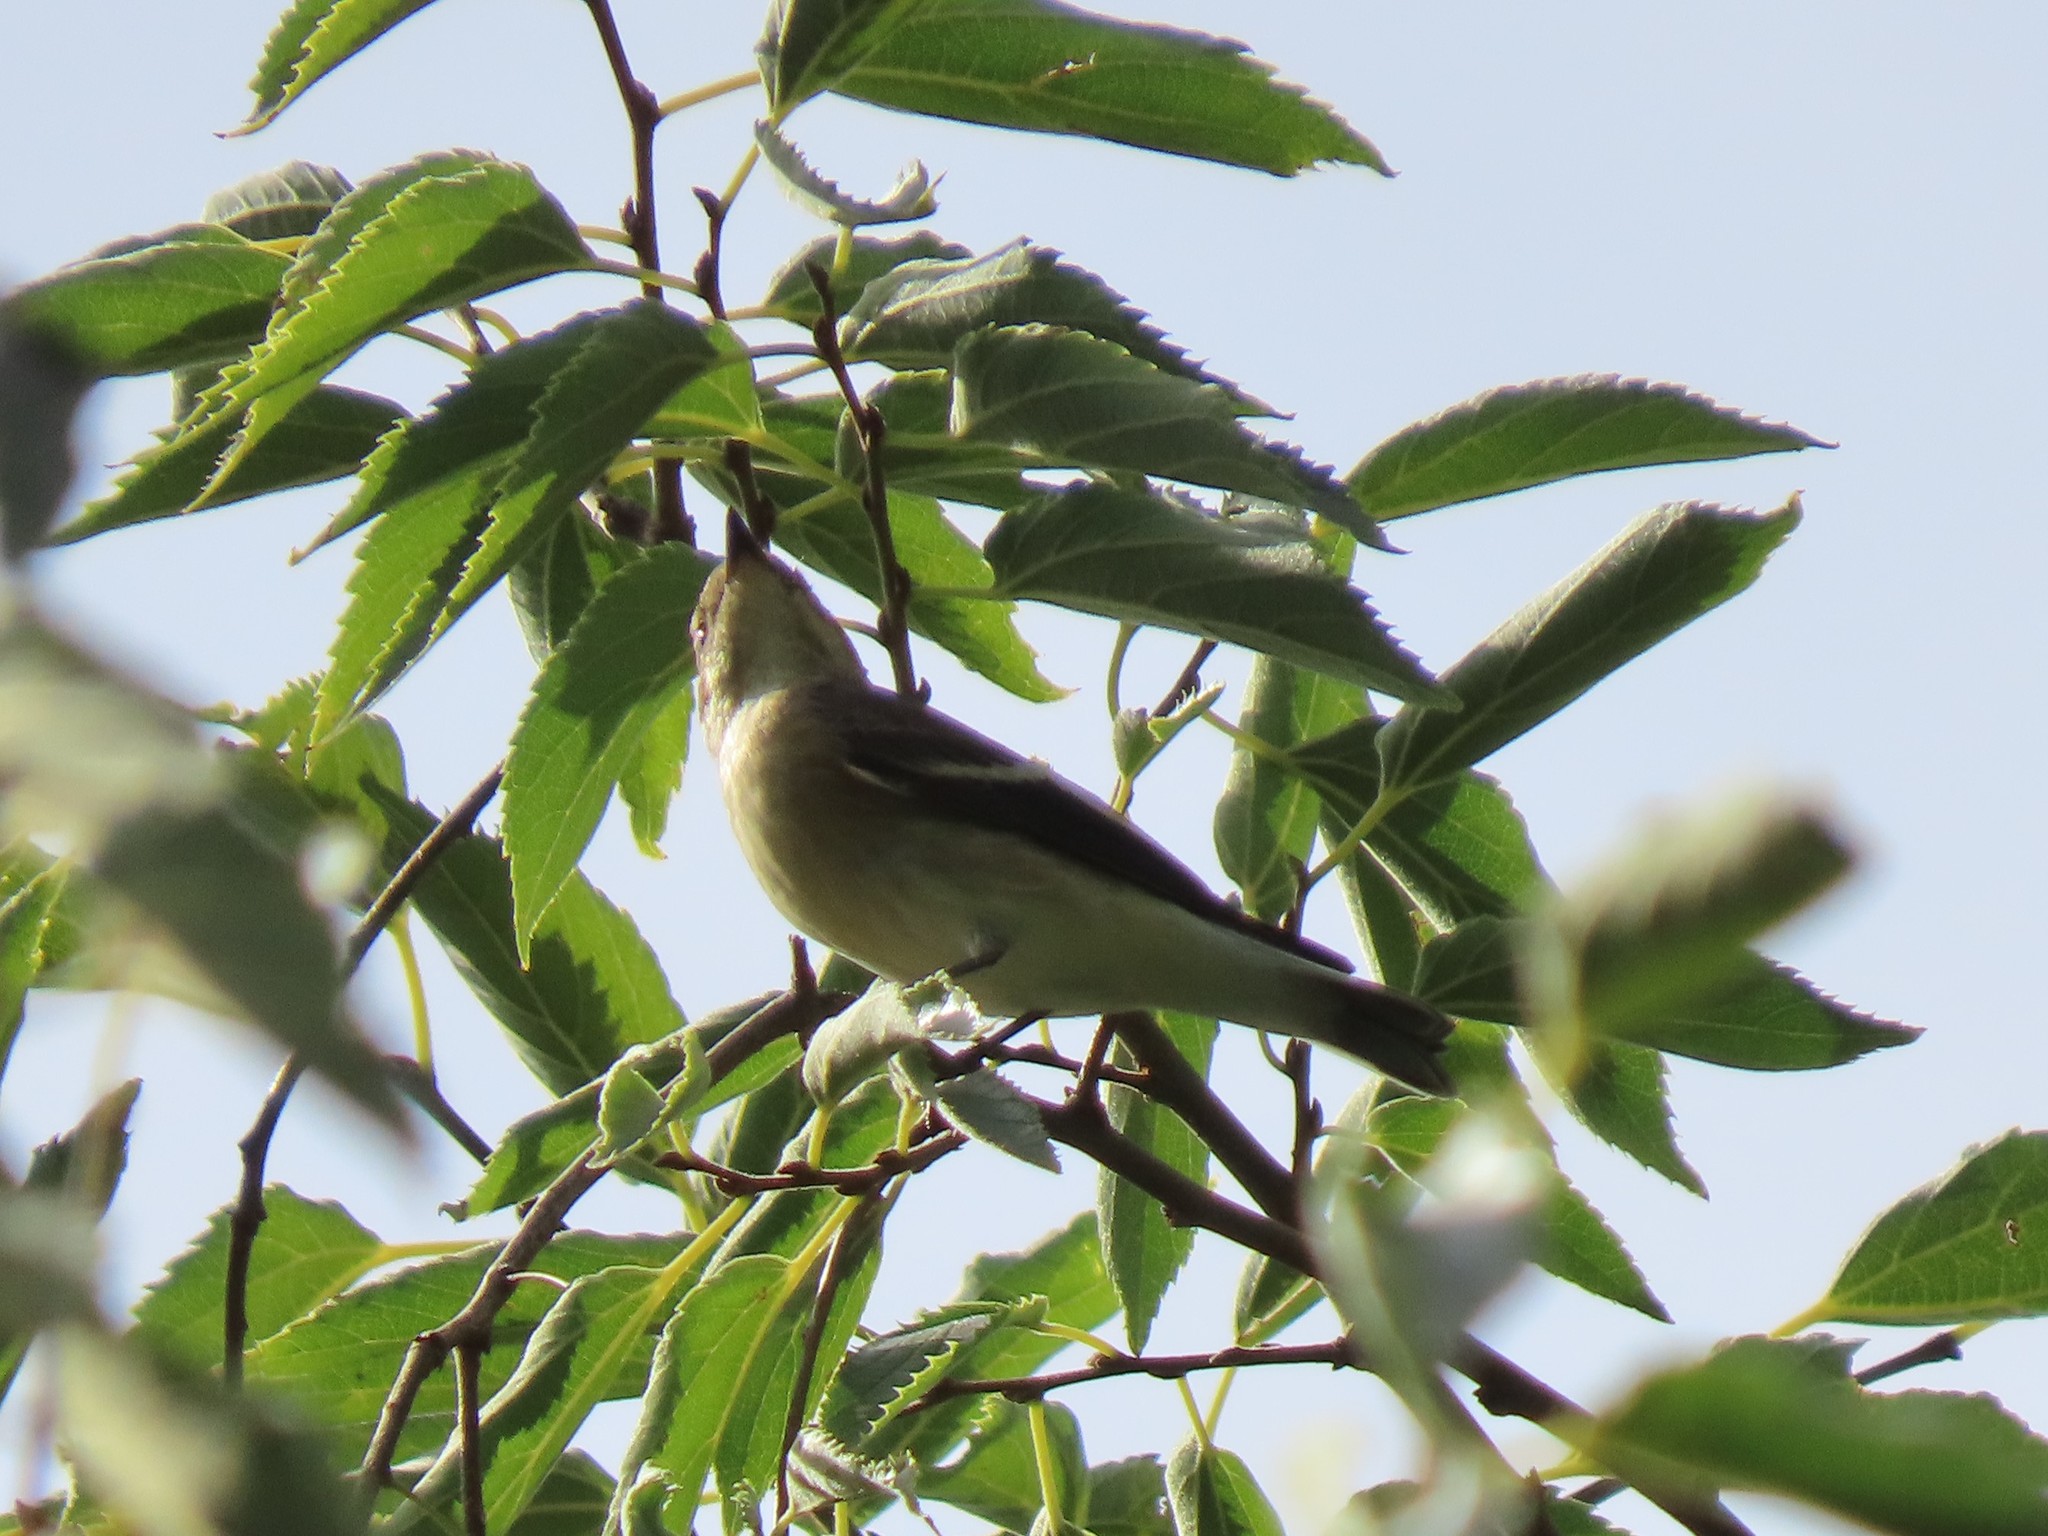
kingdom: Animalia
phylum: Chordata
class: Aves
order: Passeriformes
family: Muscicapidae
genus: Ficedula
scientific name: Ficedula hypoleuca
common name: European pied flycatcher
